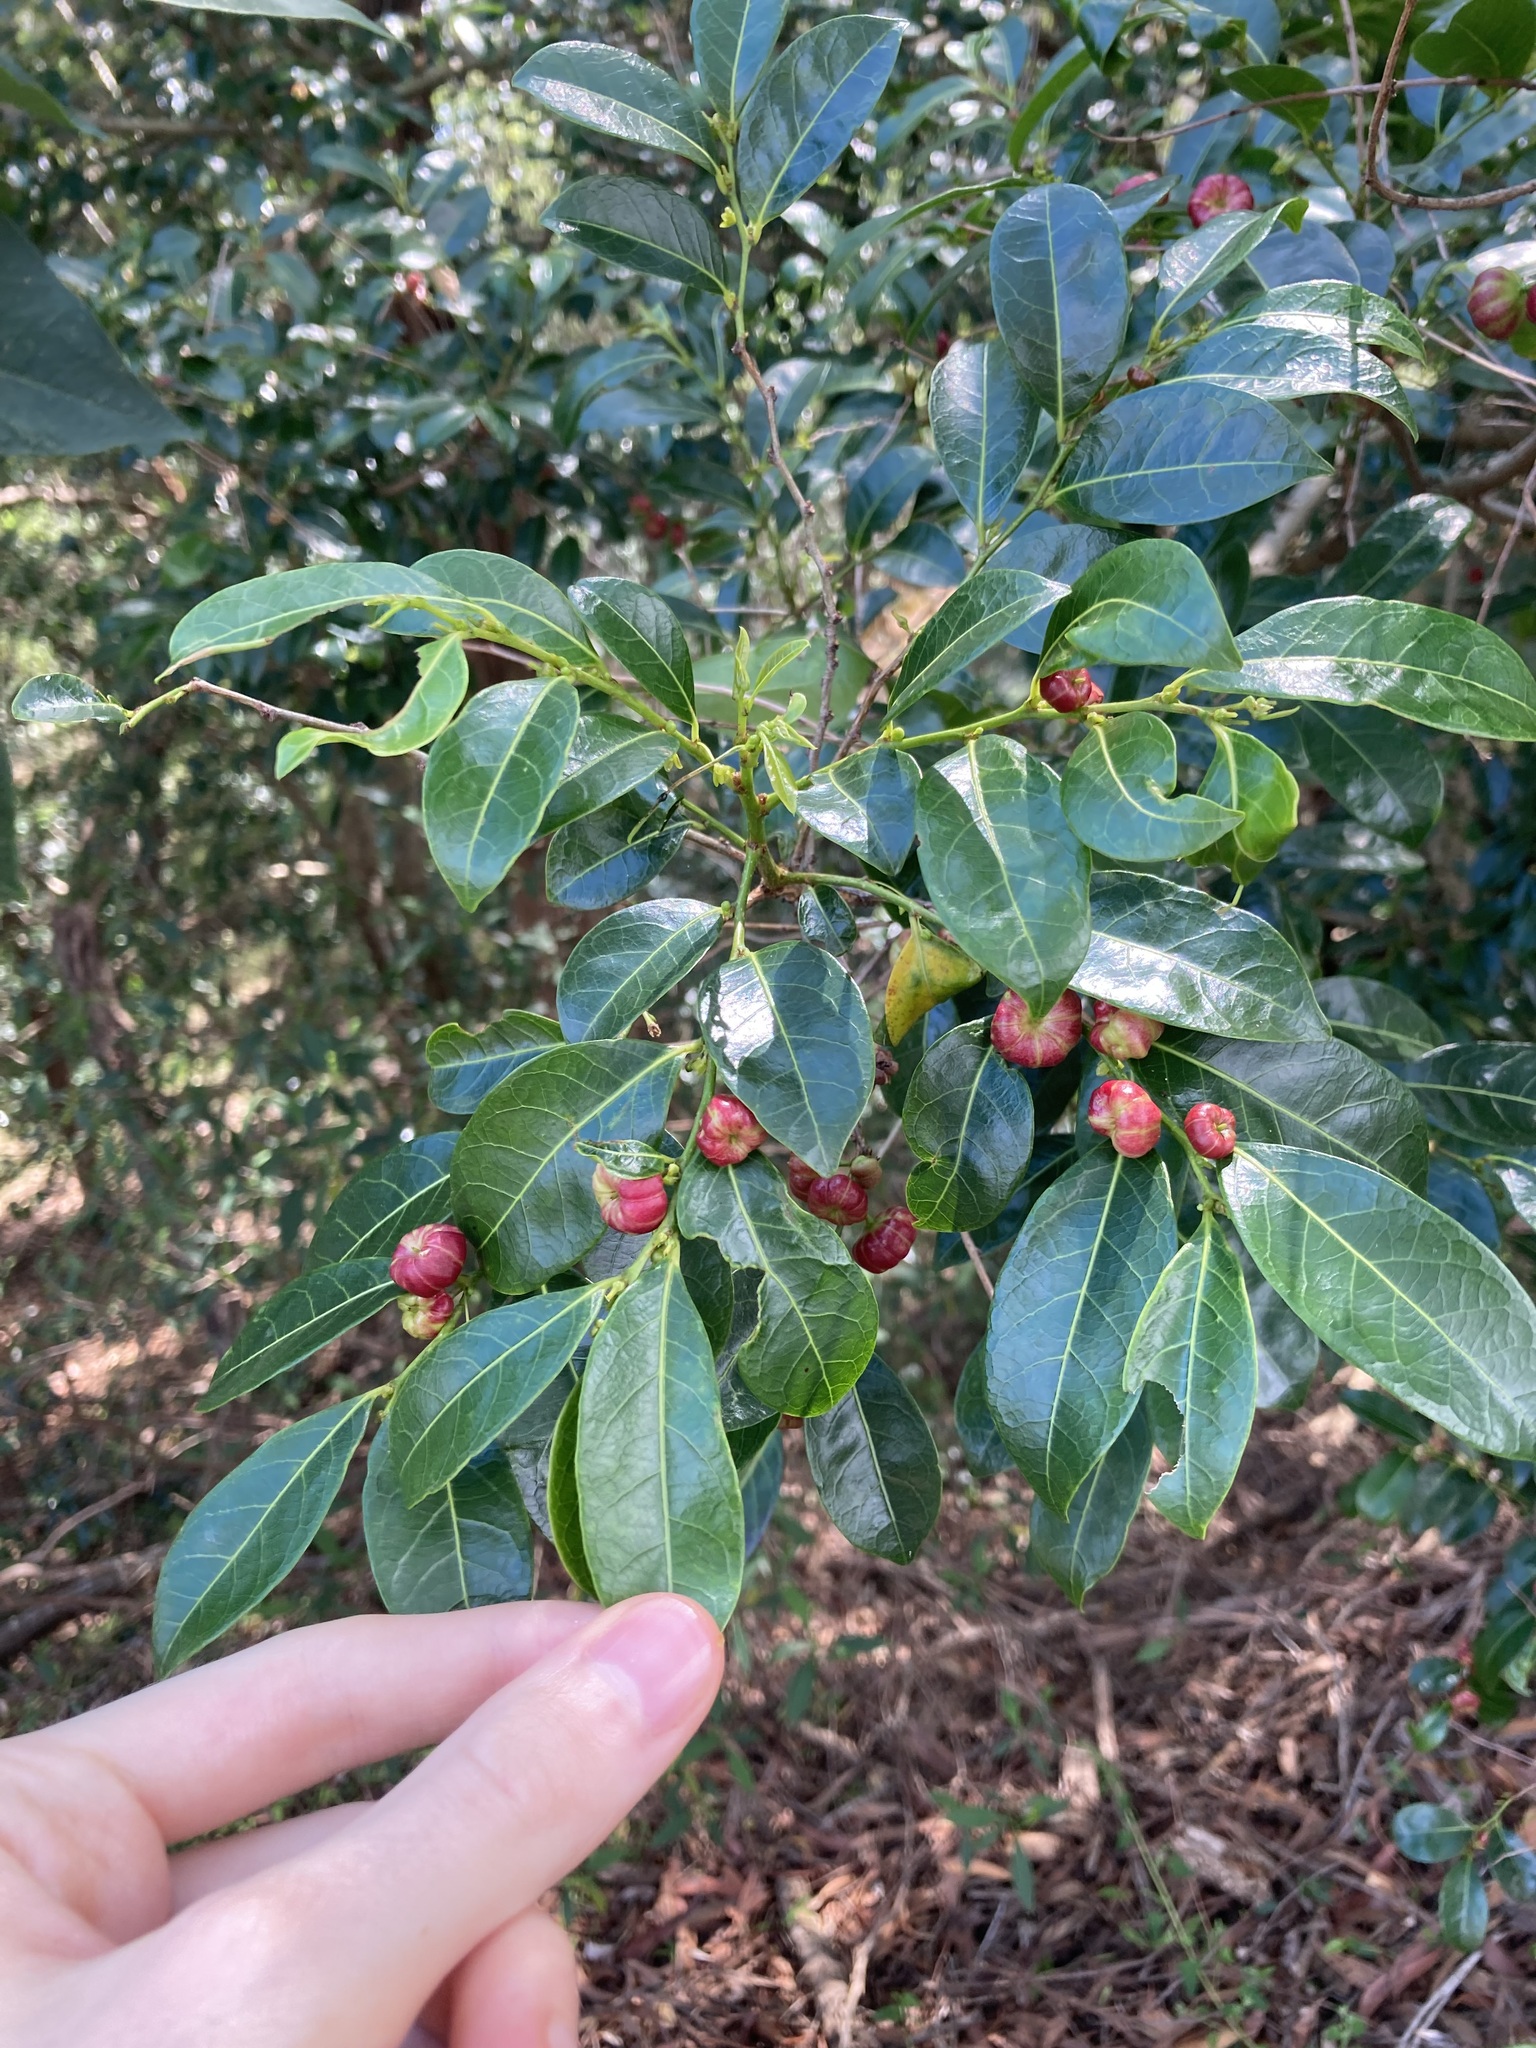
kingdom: Plantae
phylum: Tracheophyta
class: Magnoliopsida
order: Malpighiales
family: Phyllanthaceae
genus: Glochidion
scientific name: Glochidion ferdinandi
